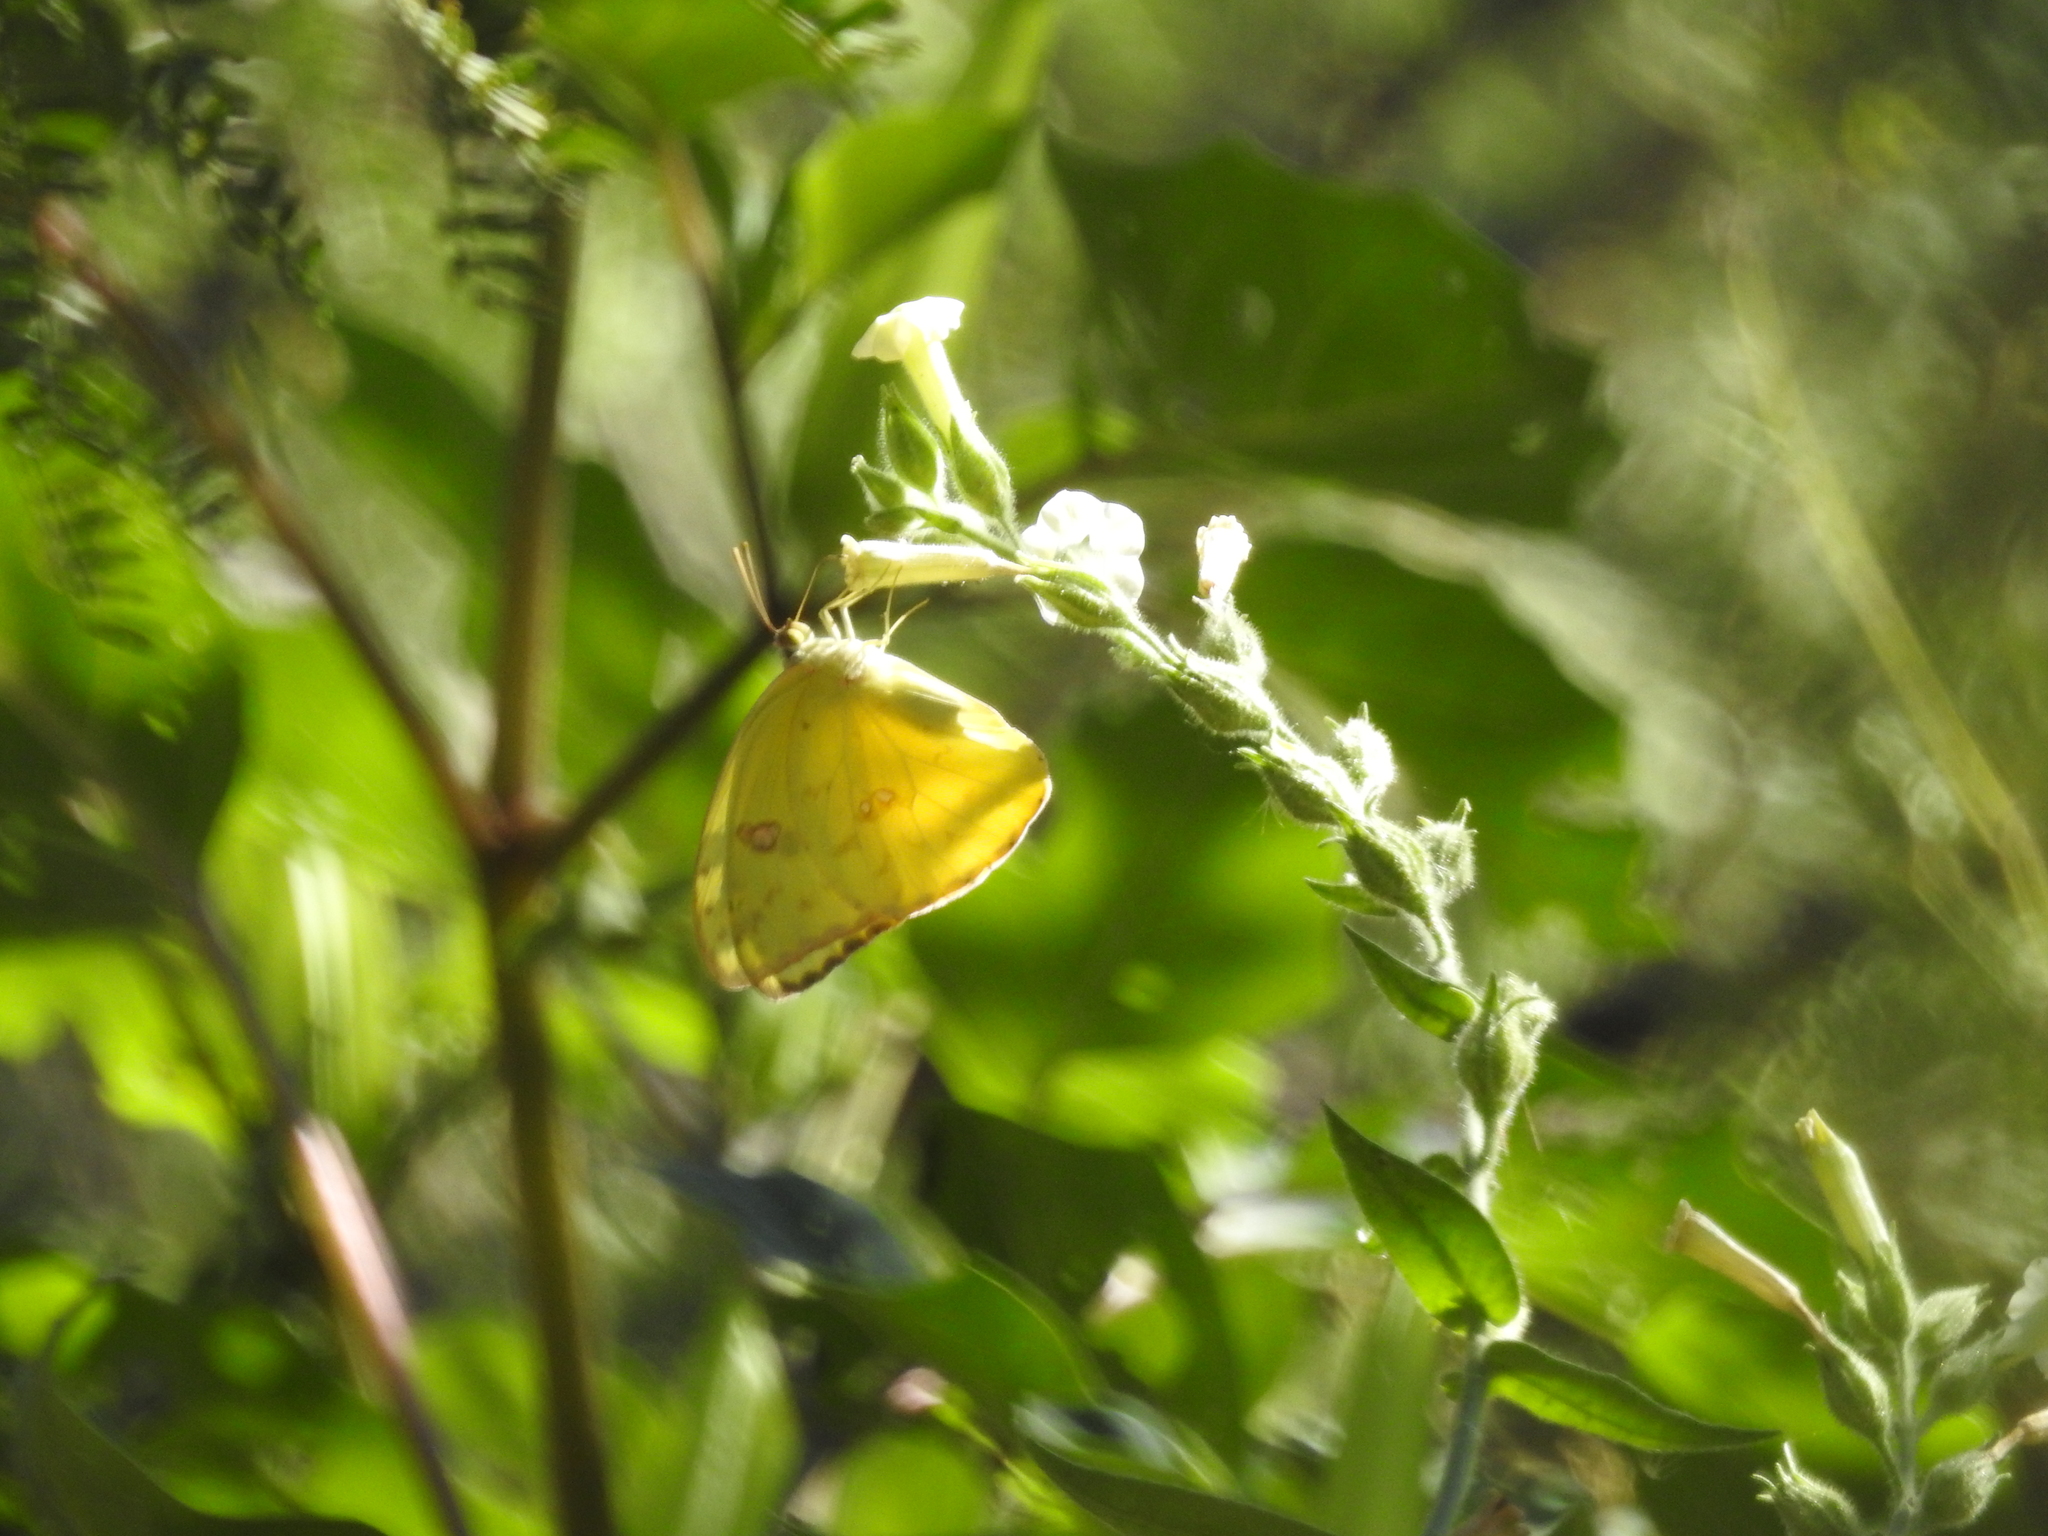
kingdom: Animalia
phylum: Arthropoda
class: Insecta
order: Lepidoptera
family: Pieridae
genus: Phoebis
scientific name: Phoebis sennae
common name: Cloudless sulphur
